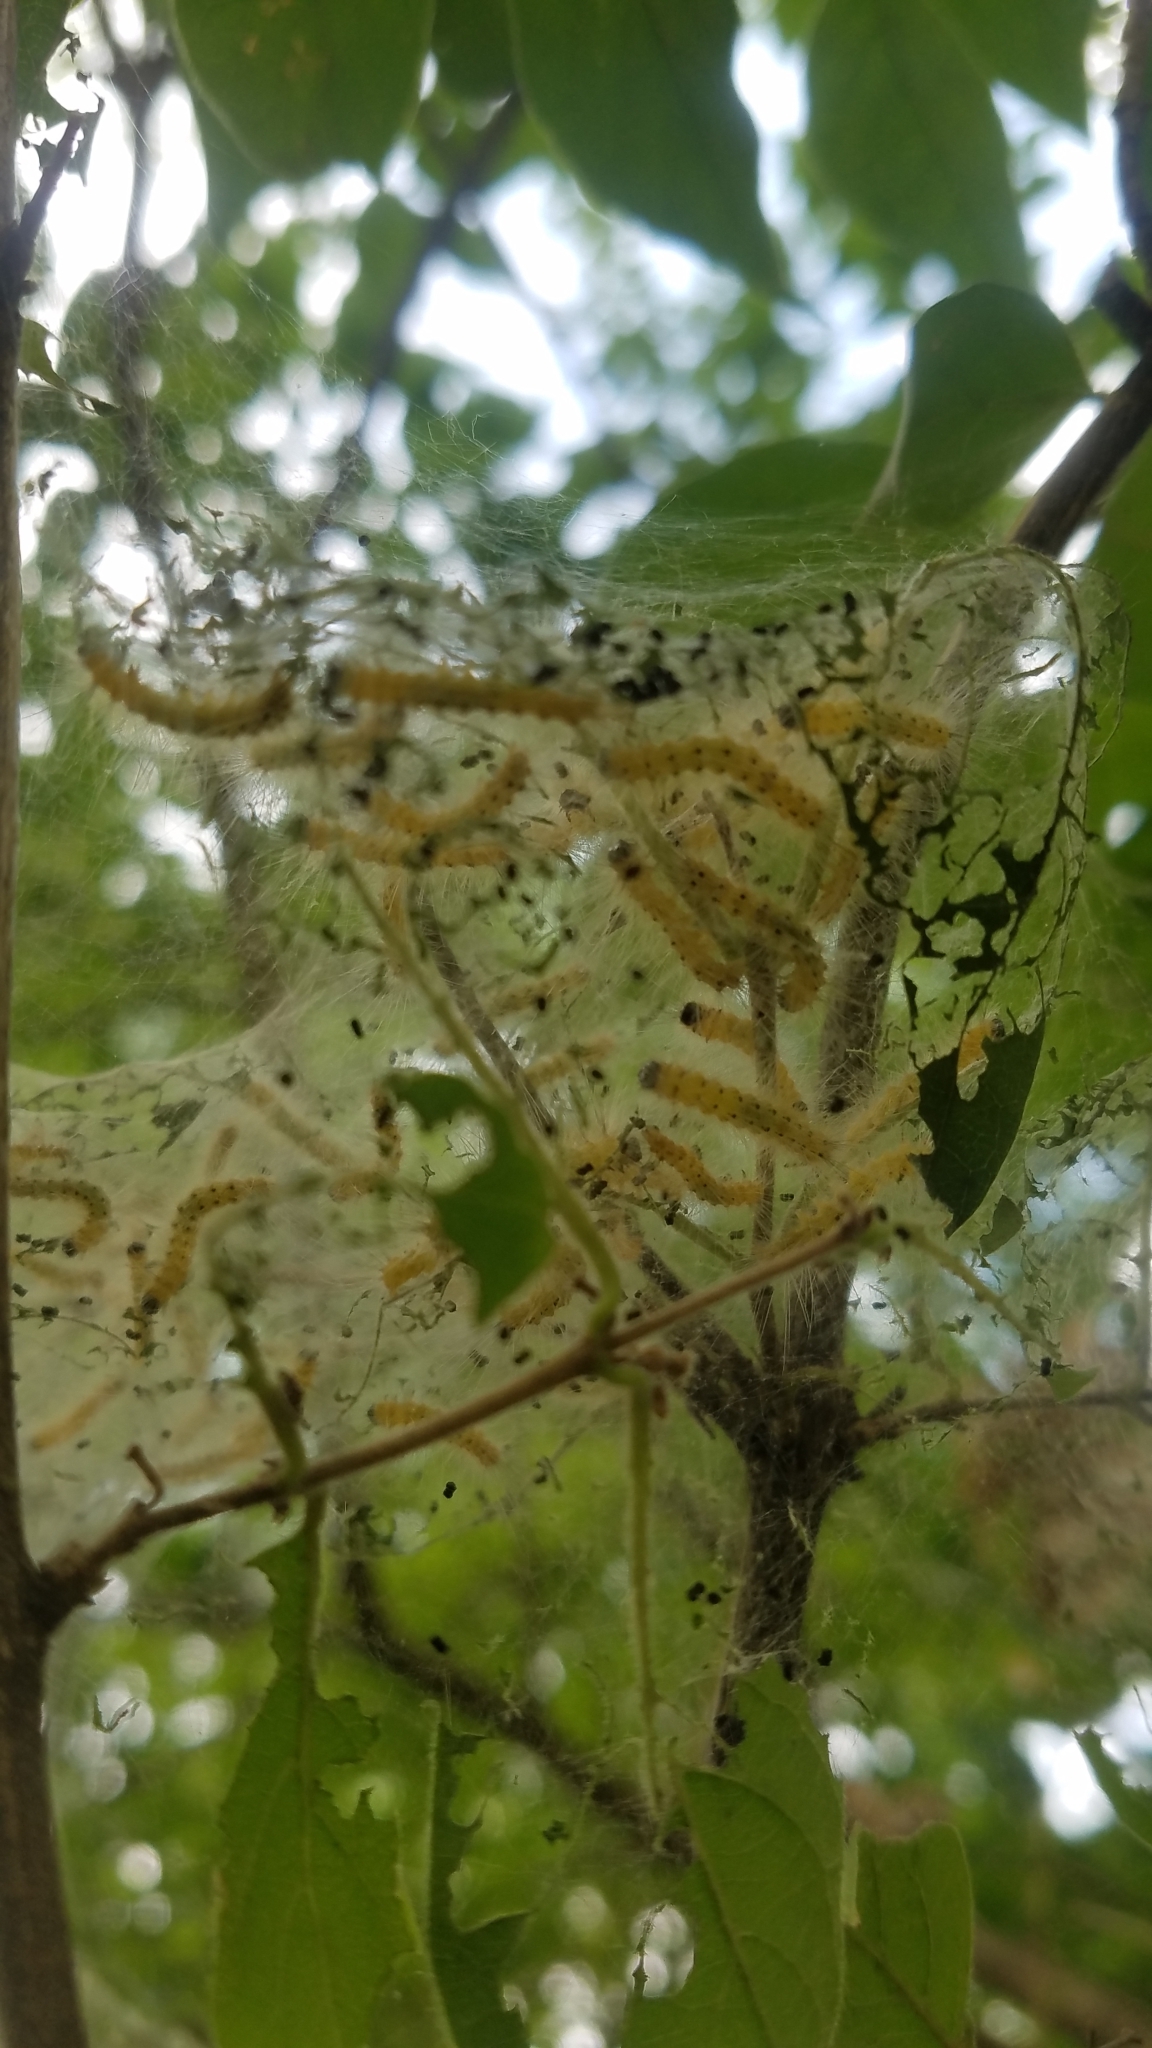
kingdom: Animalia
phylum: Arthropoda
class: Insecta
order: Lepidoptera
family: Erebidae
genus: Hyphantria
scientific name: Hyphantria cunea
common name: American white moth
